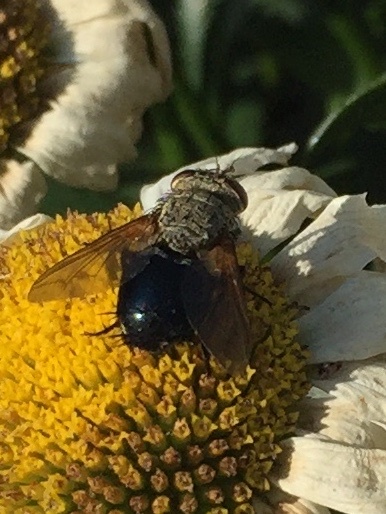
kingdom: Animalia
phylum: Arthropoda
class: Insecta
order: Diptera
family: Tachinidae
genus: Archytas
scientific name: Archytas apicifer
